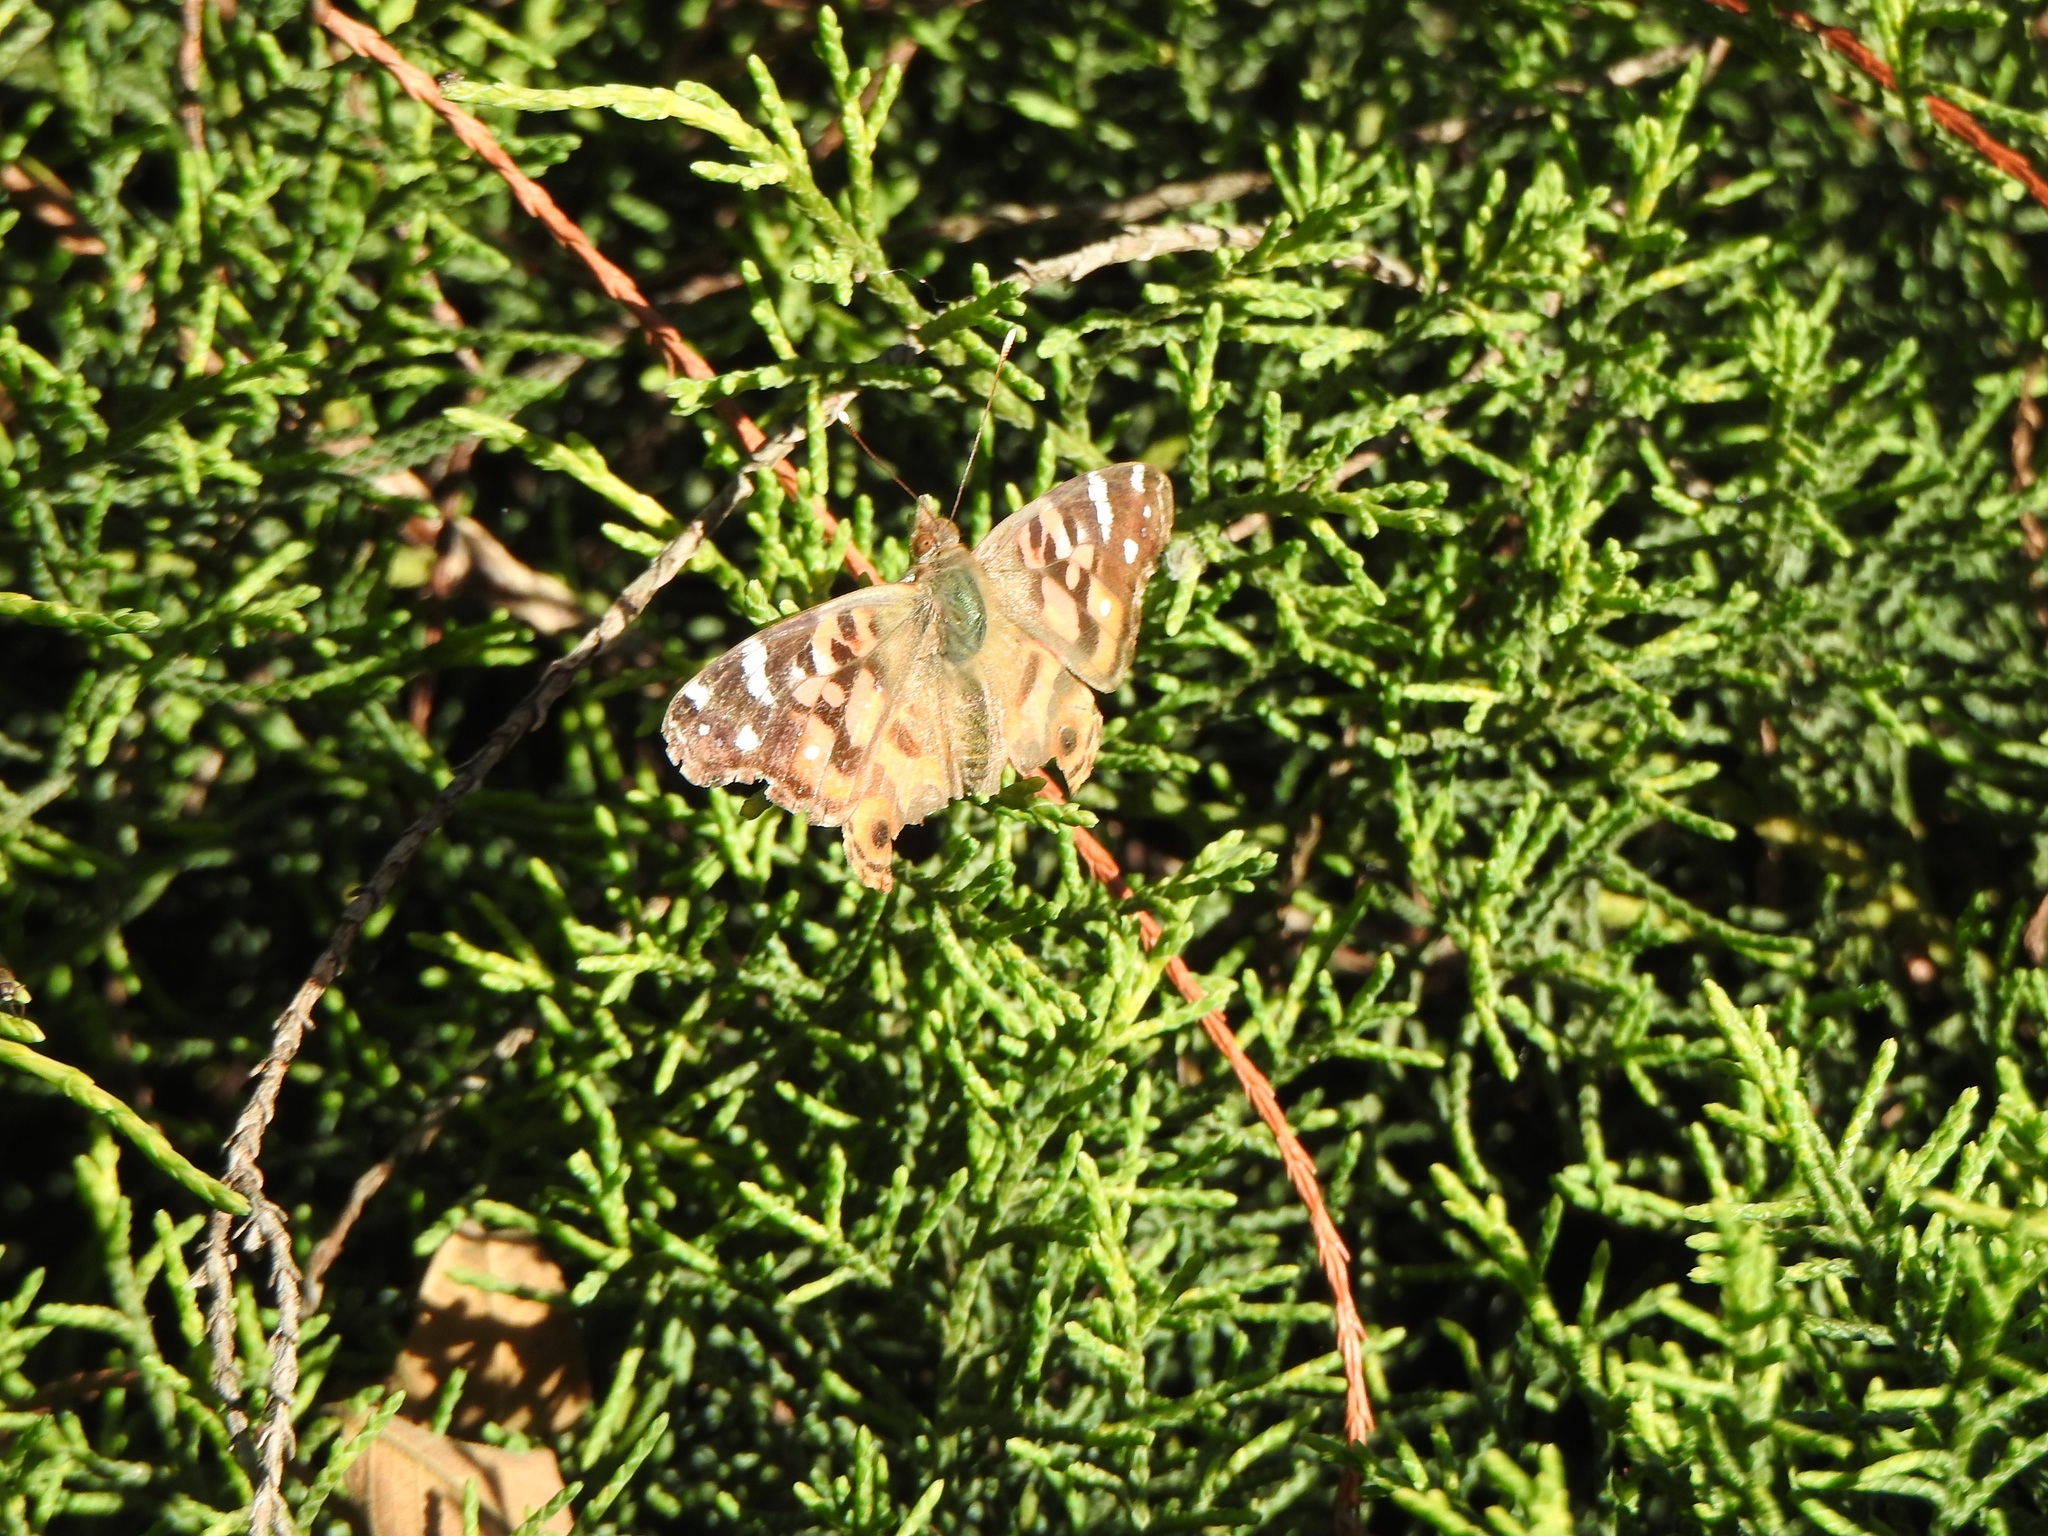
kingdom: Animalia
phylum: Arthropoda
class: Insecta
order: Lepidoptera
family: Nymphalidae
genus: Vanessa
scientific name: Vanessa braziliensis
